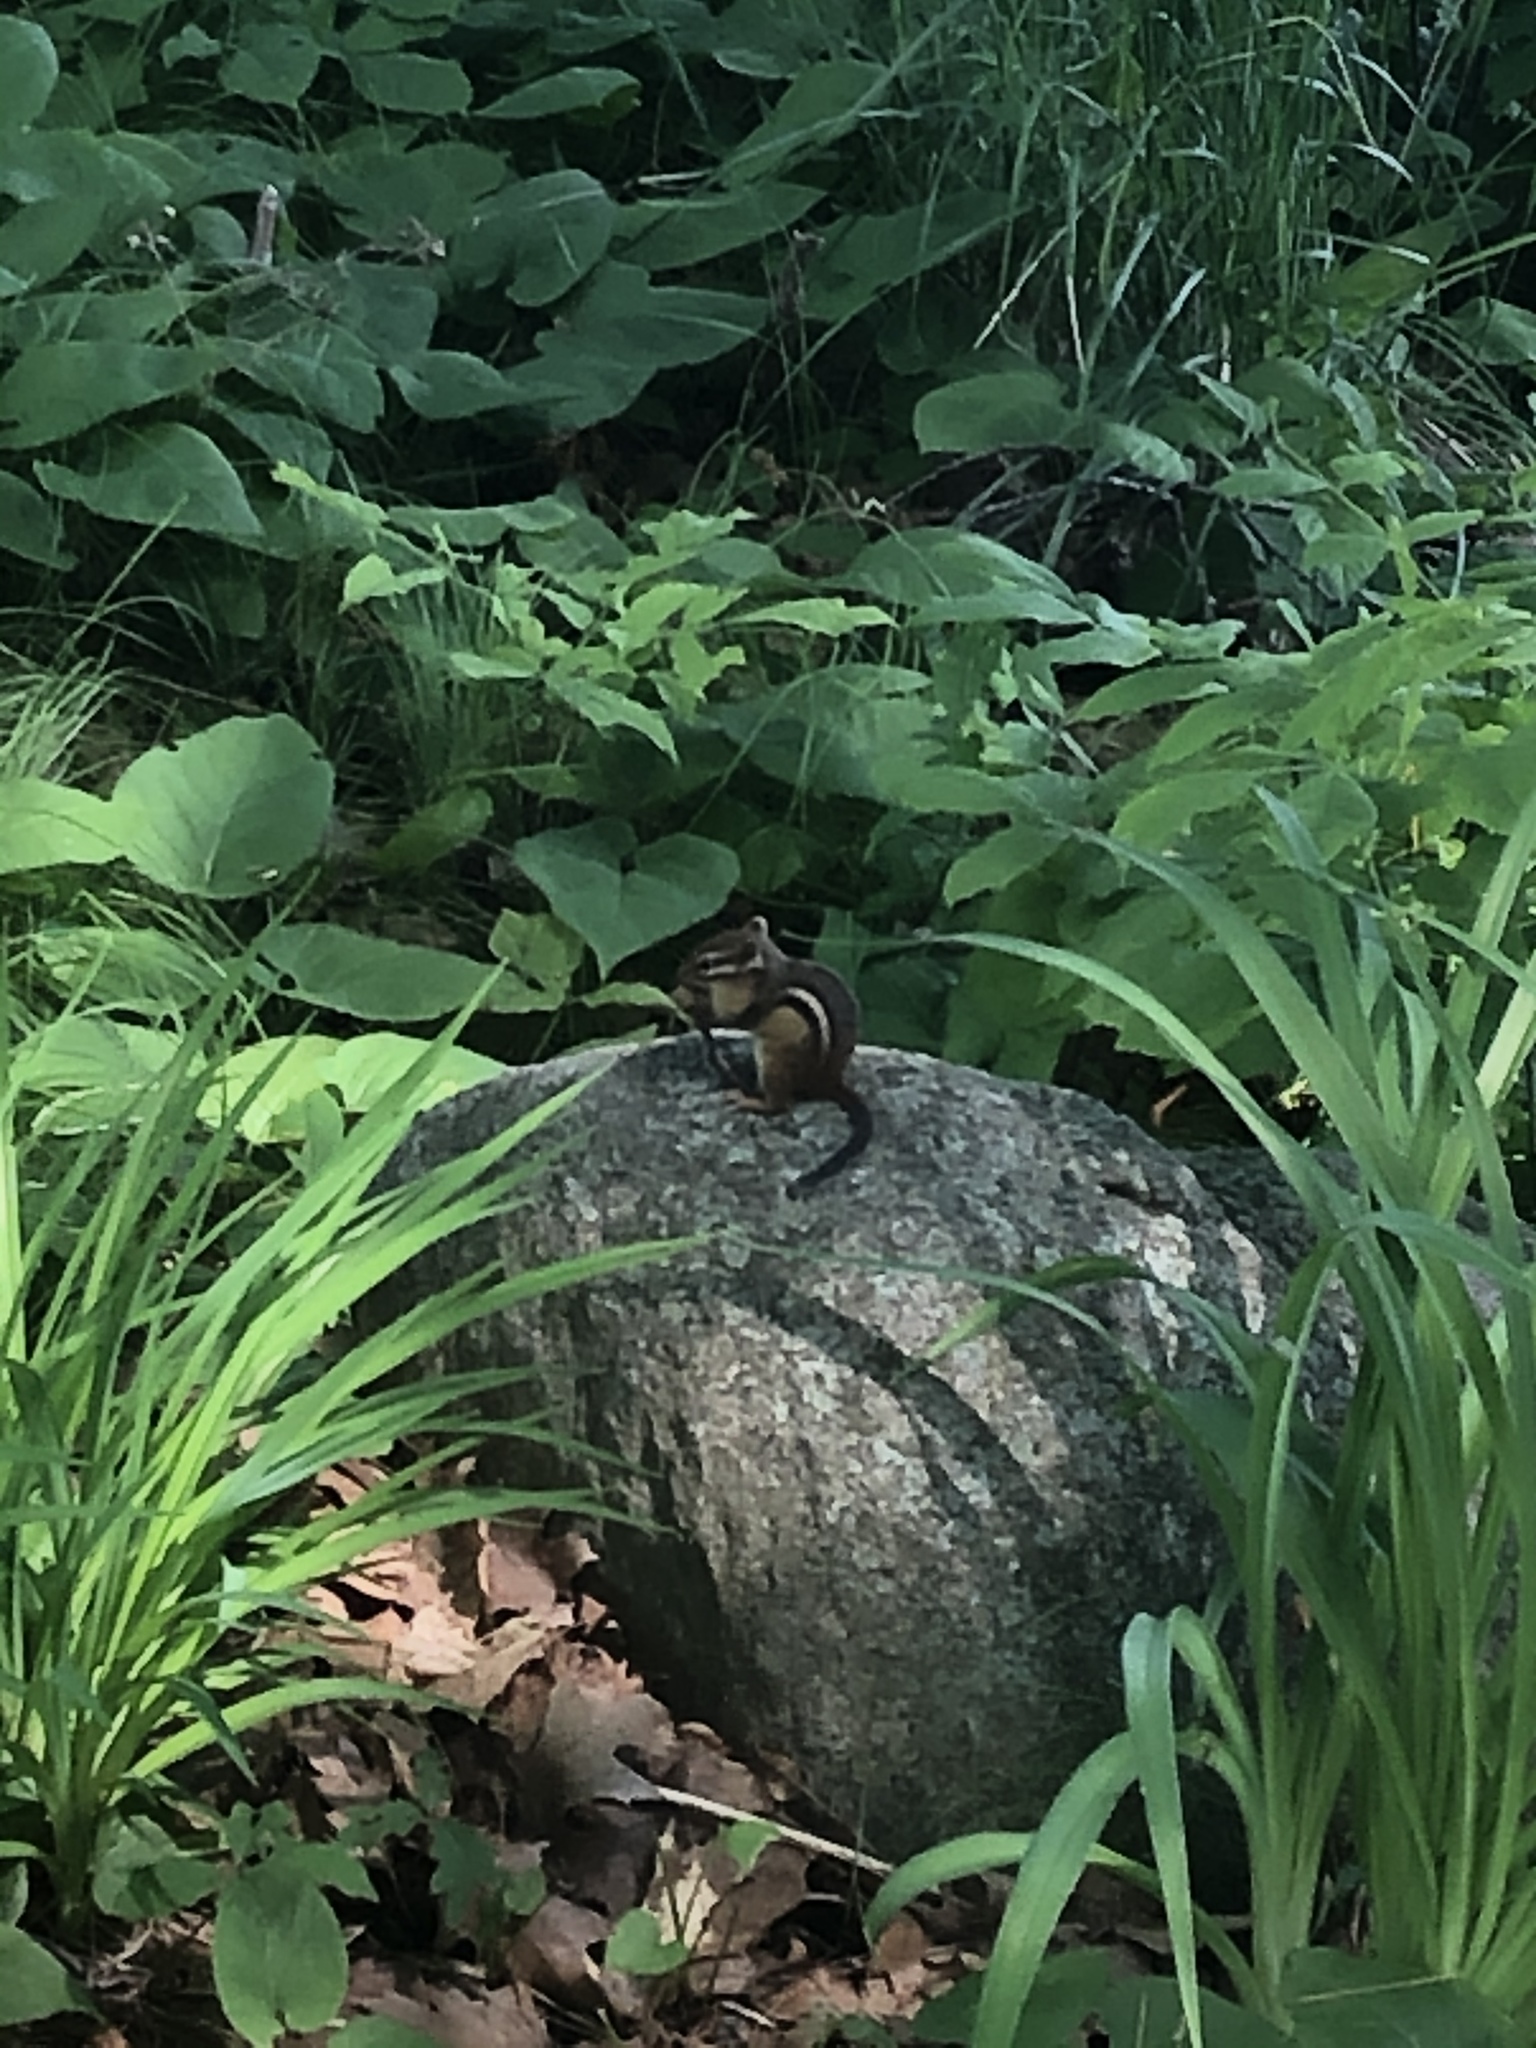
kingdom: Animalia
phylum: Chordata
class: Mammalia
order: Rodentia
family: Sciuridae
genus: Tamias
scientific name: Tamias striatus
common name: Eastern chipmunk
